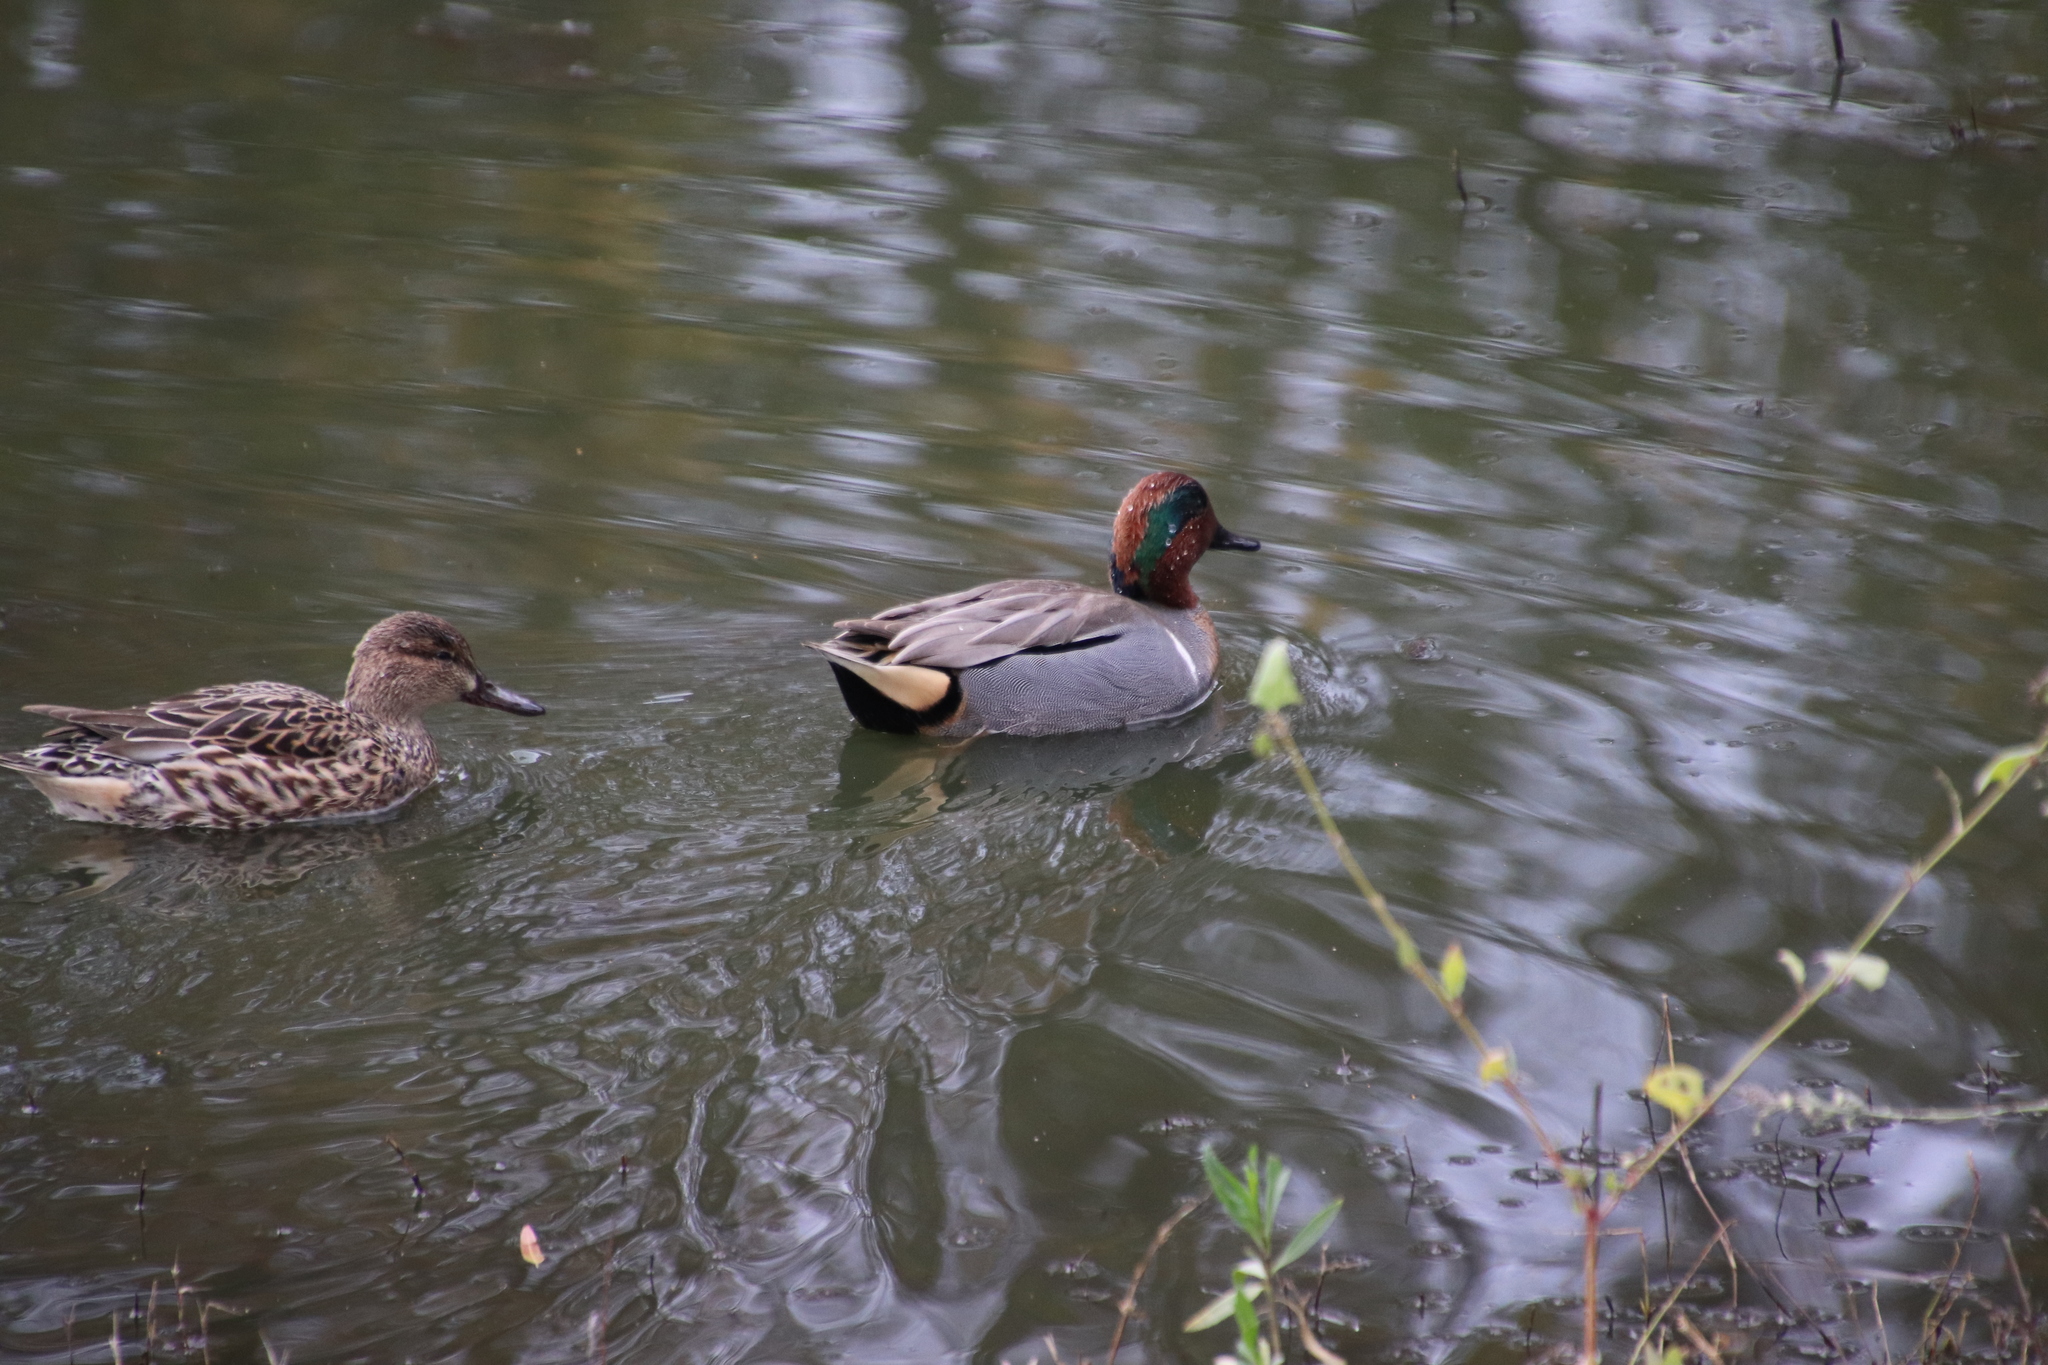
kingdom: Animalia
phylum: Chordata
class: Aves
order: Anseriformes
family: Anatidae
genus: Anas
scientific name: Anas crecca
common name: Eurasian teal
